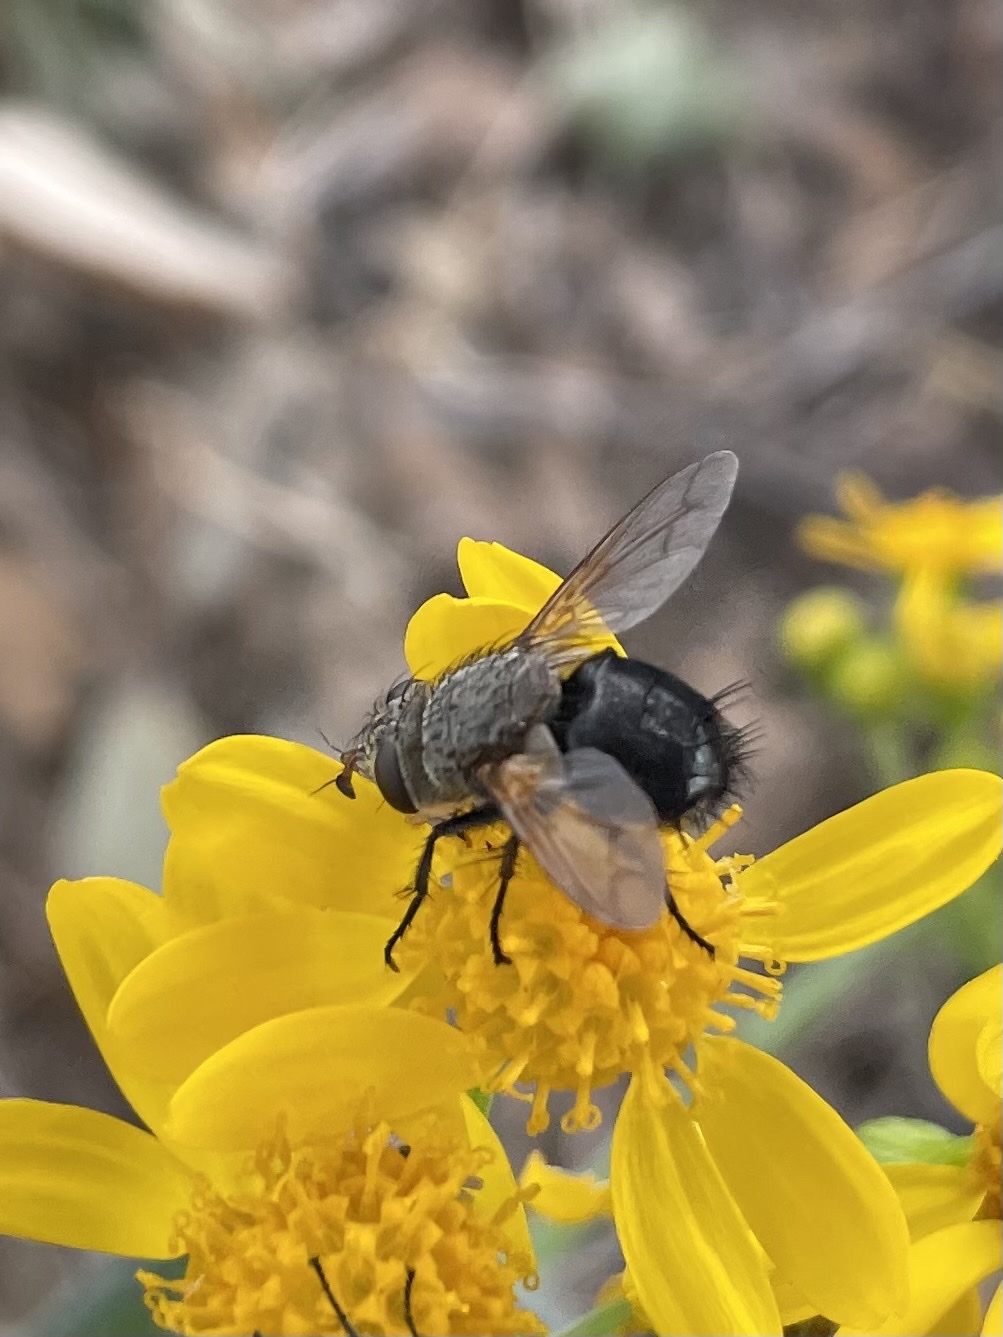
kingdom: Animalia
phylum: Arthropoda
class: Insecta
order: Diptera
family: Tachinidae
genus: Archytas
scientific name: Archytas apicifer
